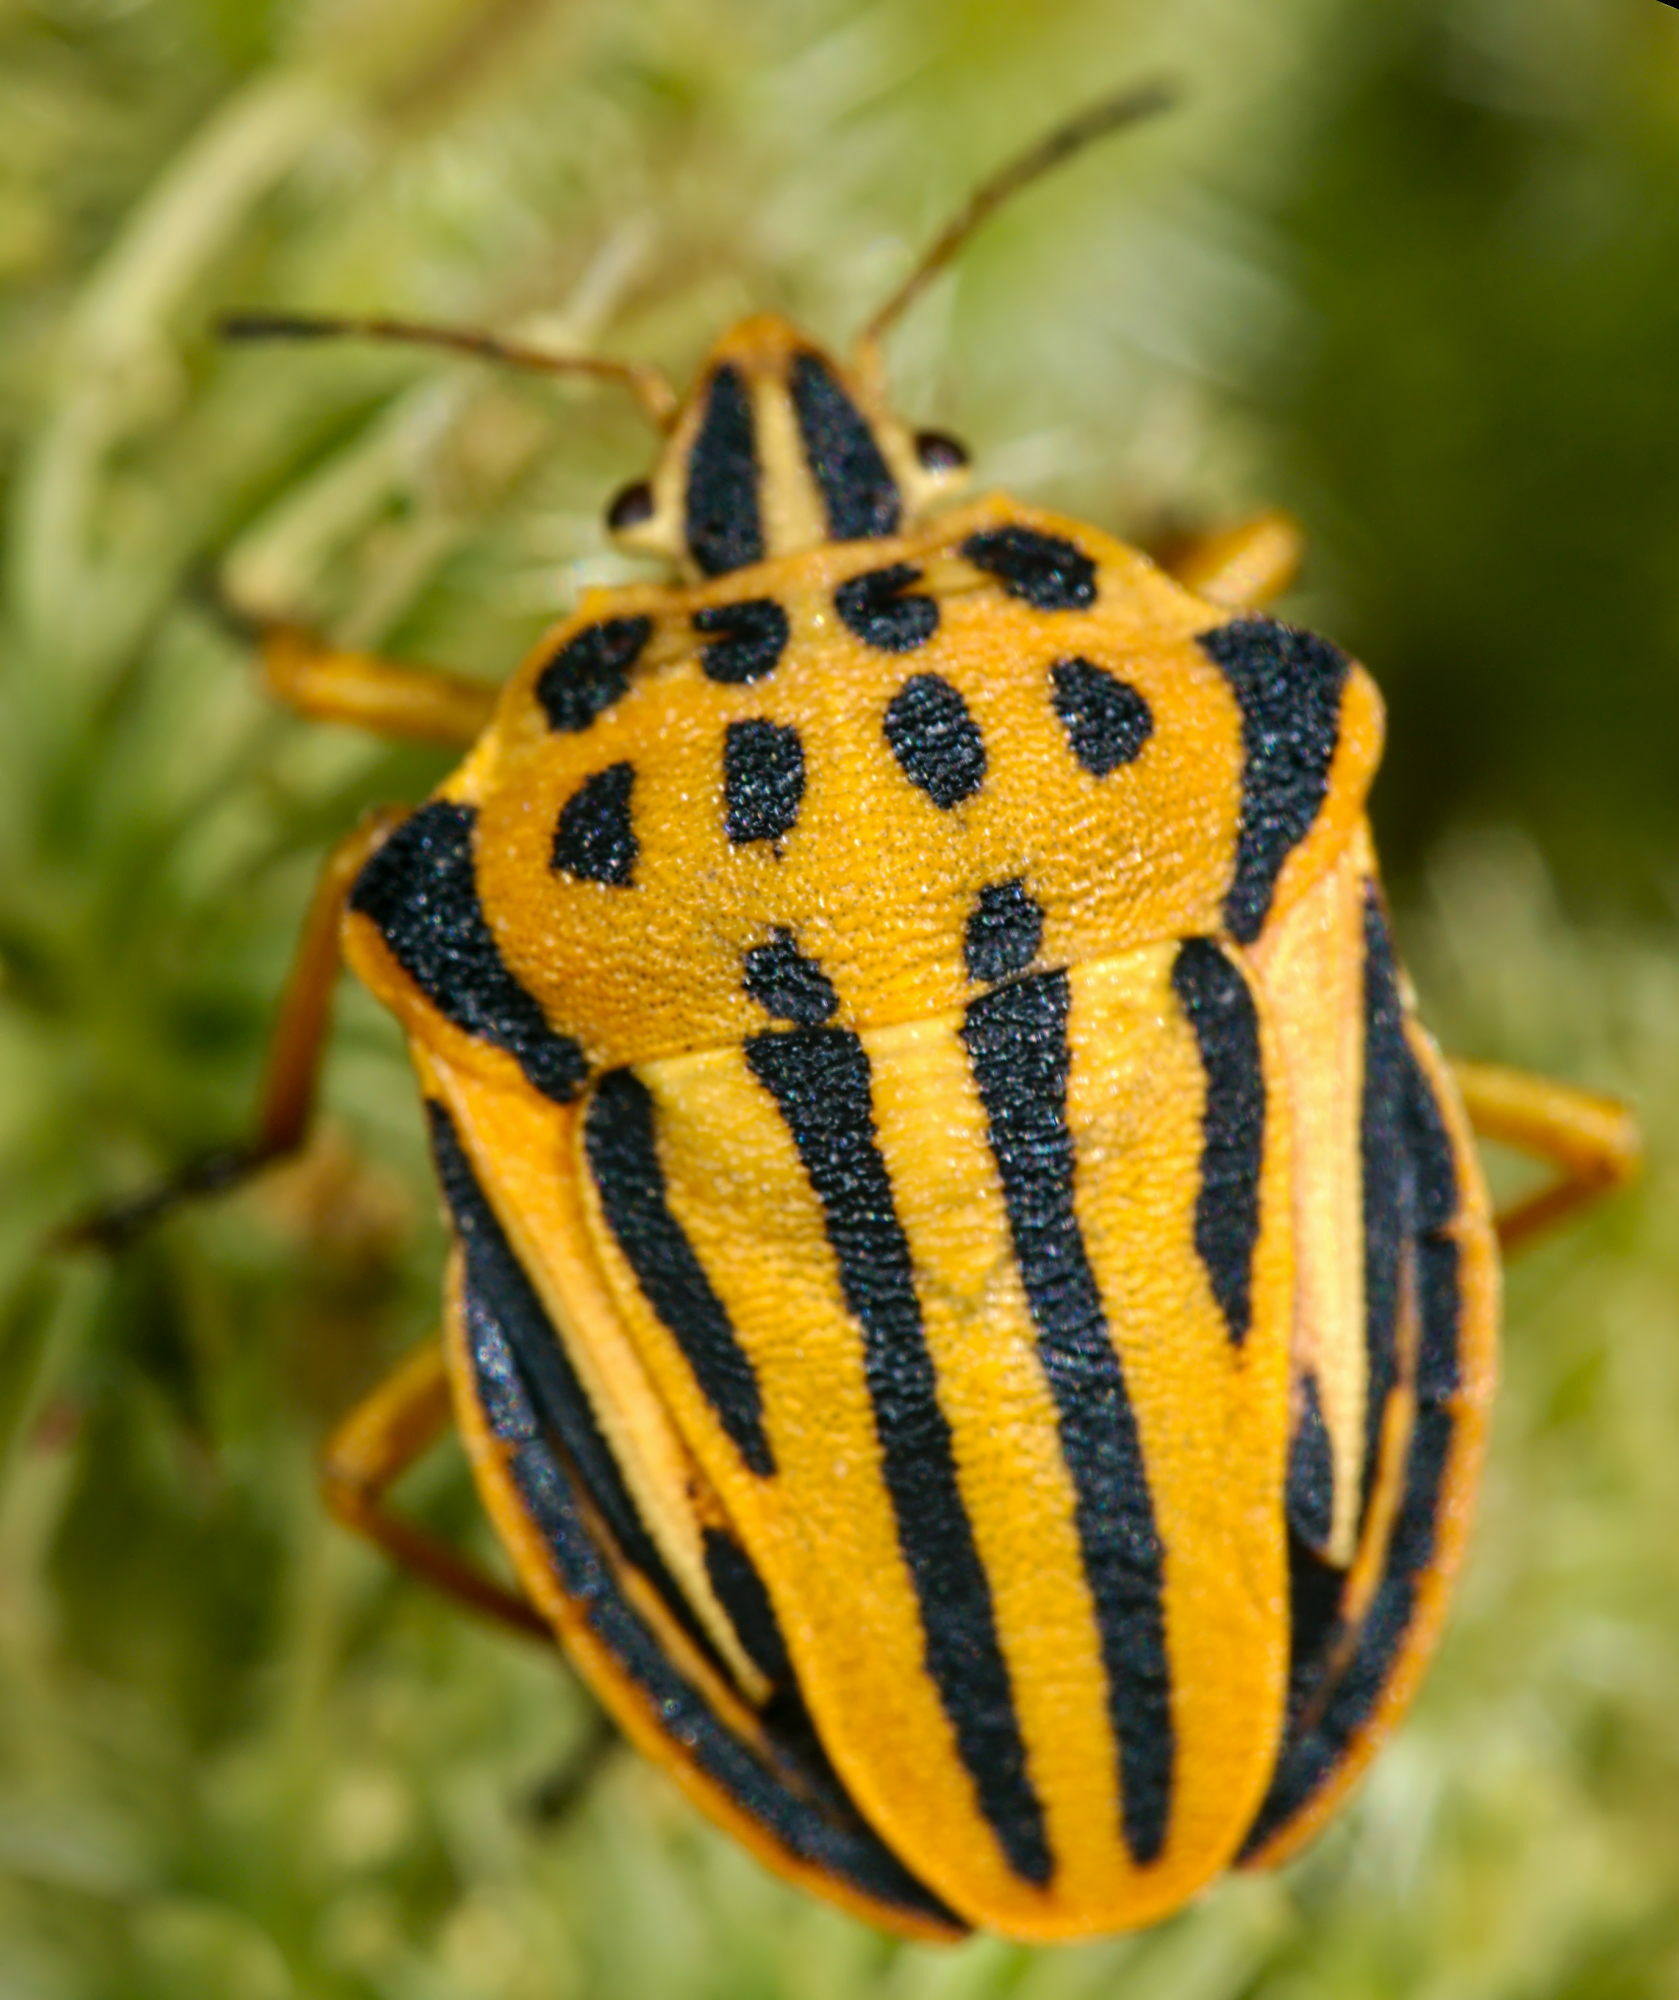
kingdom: Animalia
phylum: Arthropoda
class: Insecta
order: Hemiptera
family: Pentatomidae
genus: Graphosoma
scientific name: Graphosoma semipunctatum
